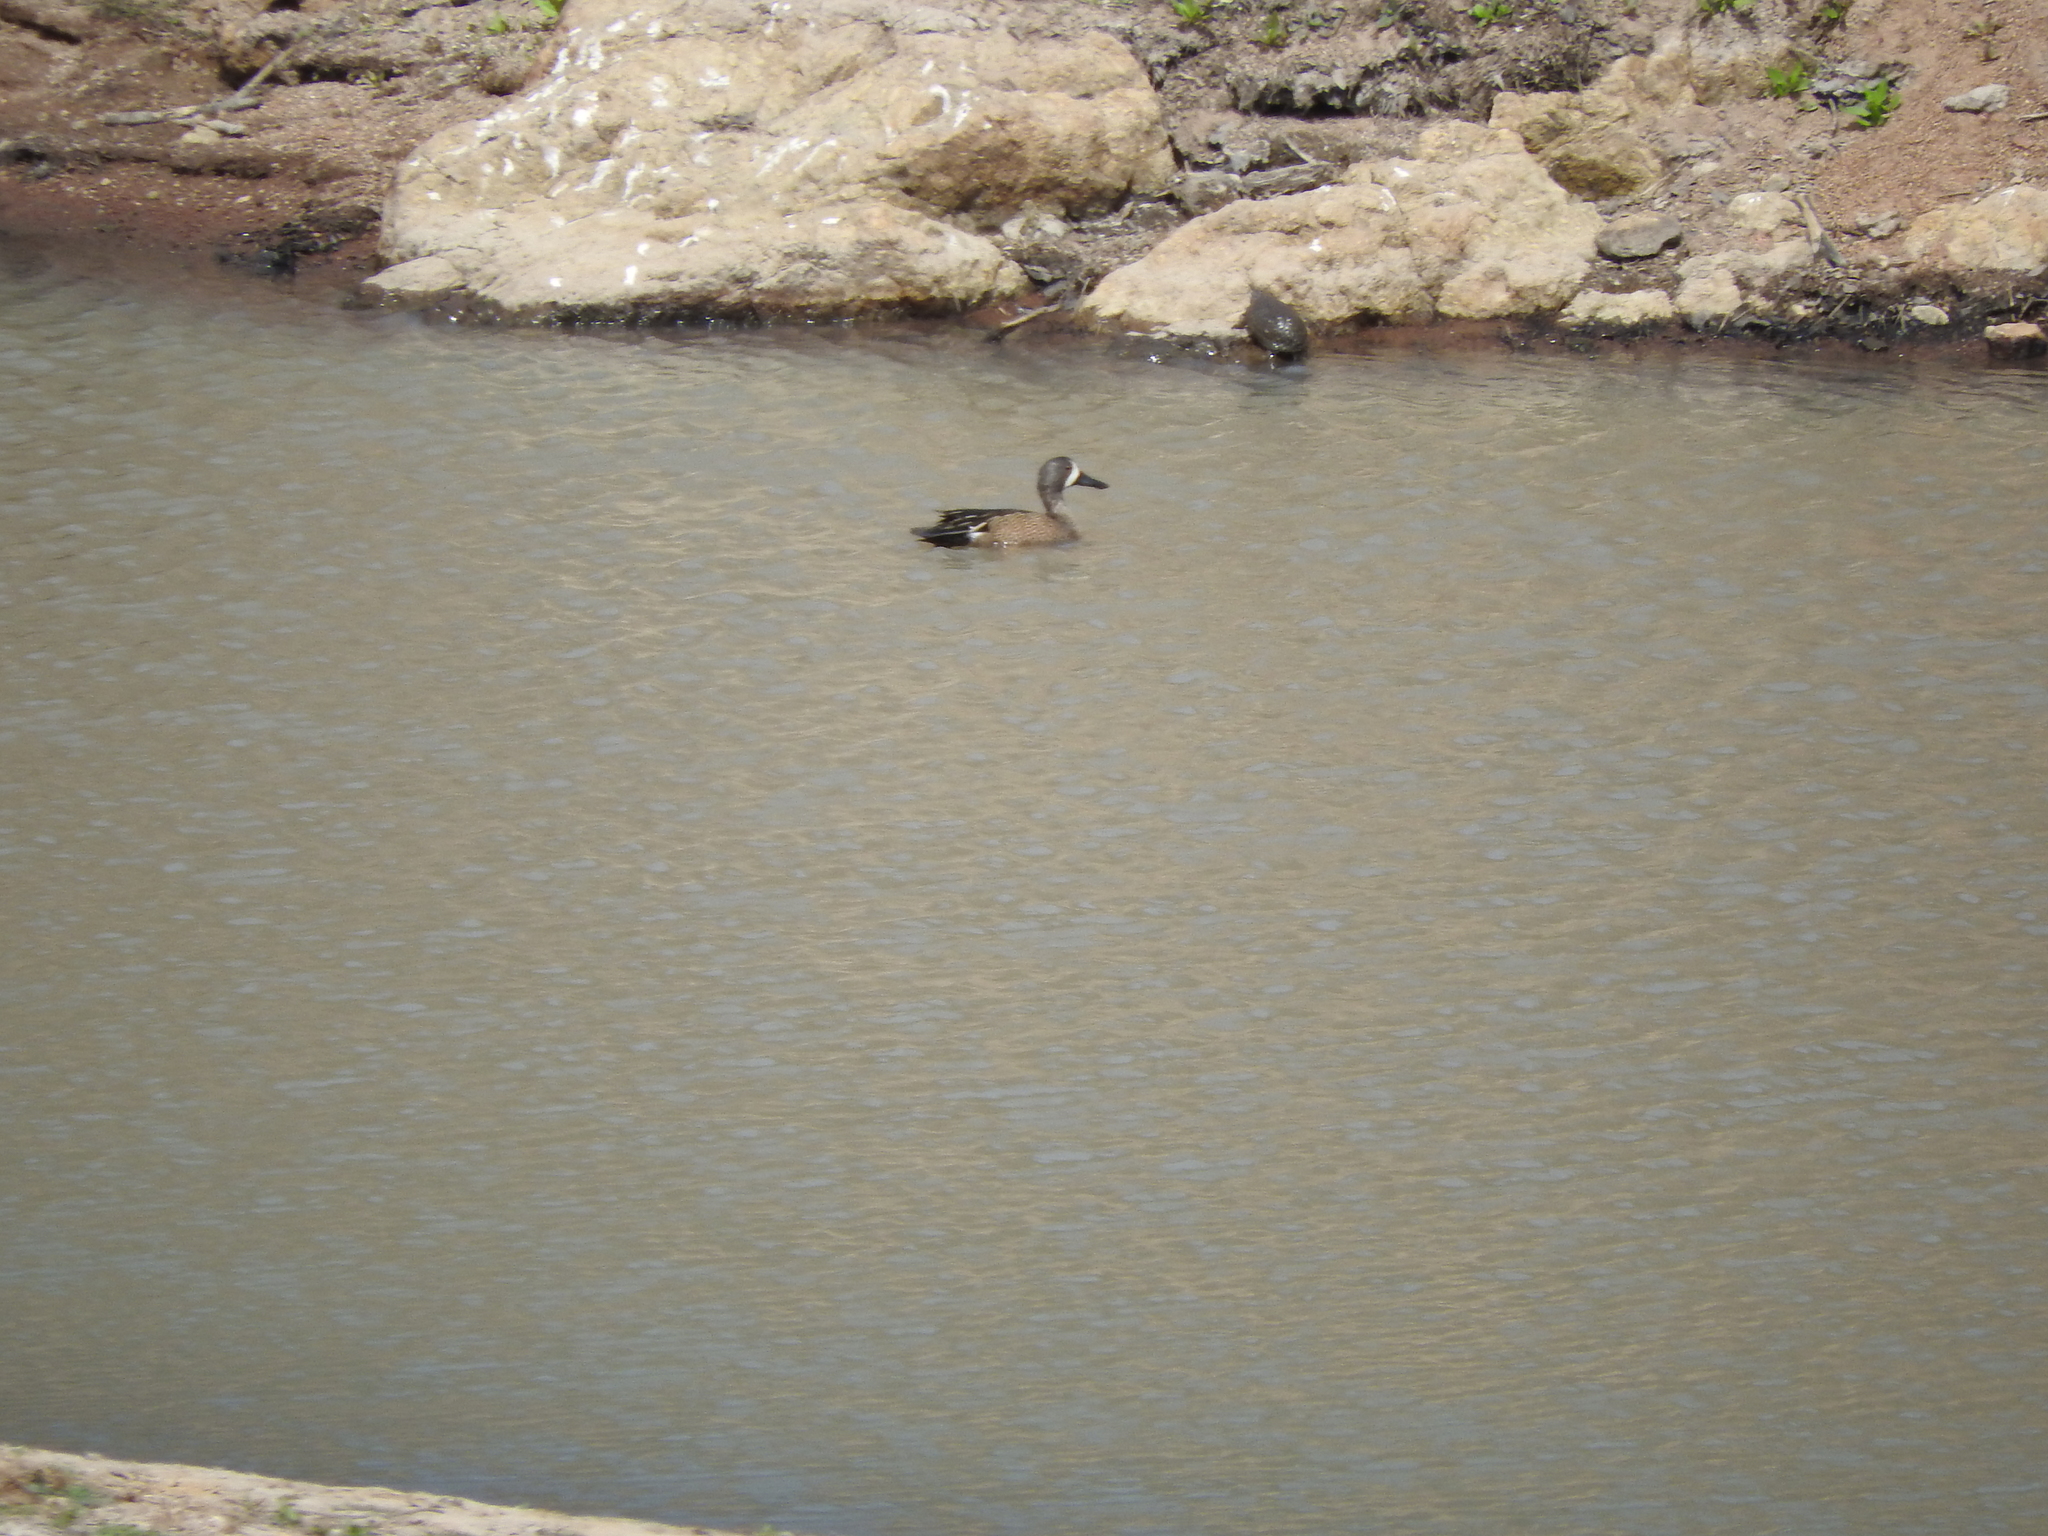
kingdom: Animalia
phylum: Chordata
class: Aves
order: Anseriformes
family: Anatidae
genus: Spatula
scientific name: Spatula discors
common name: Blue-winged teal
